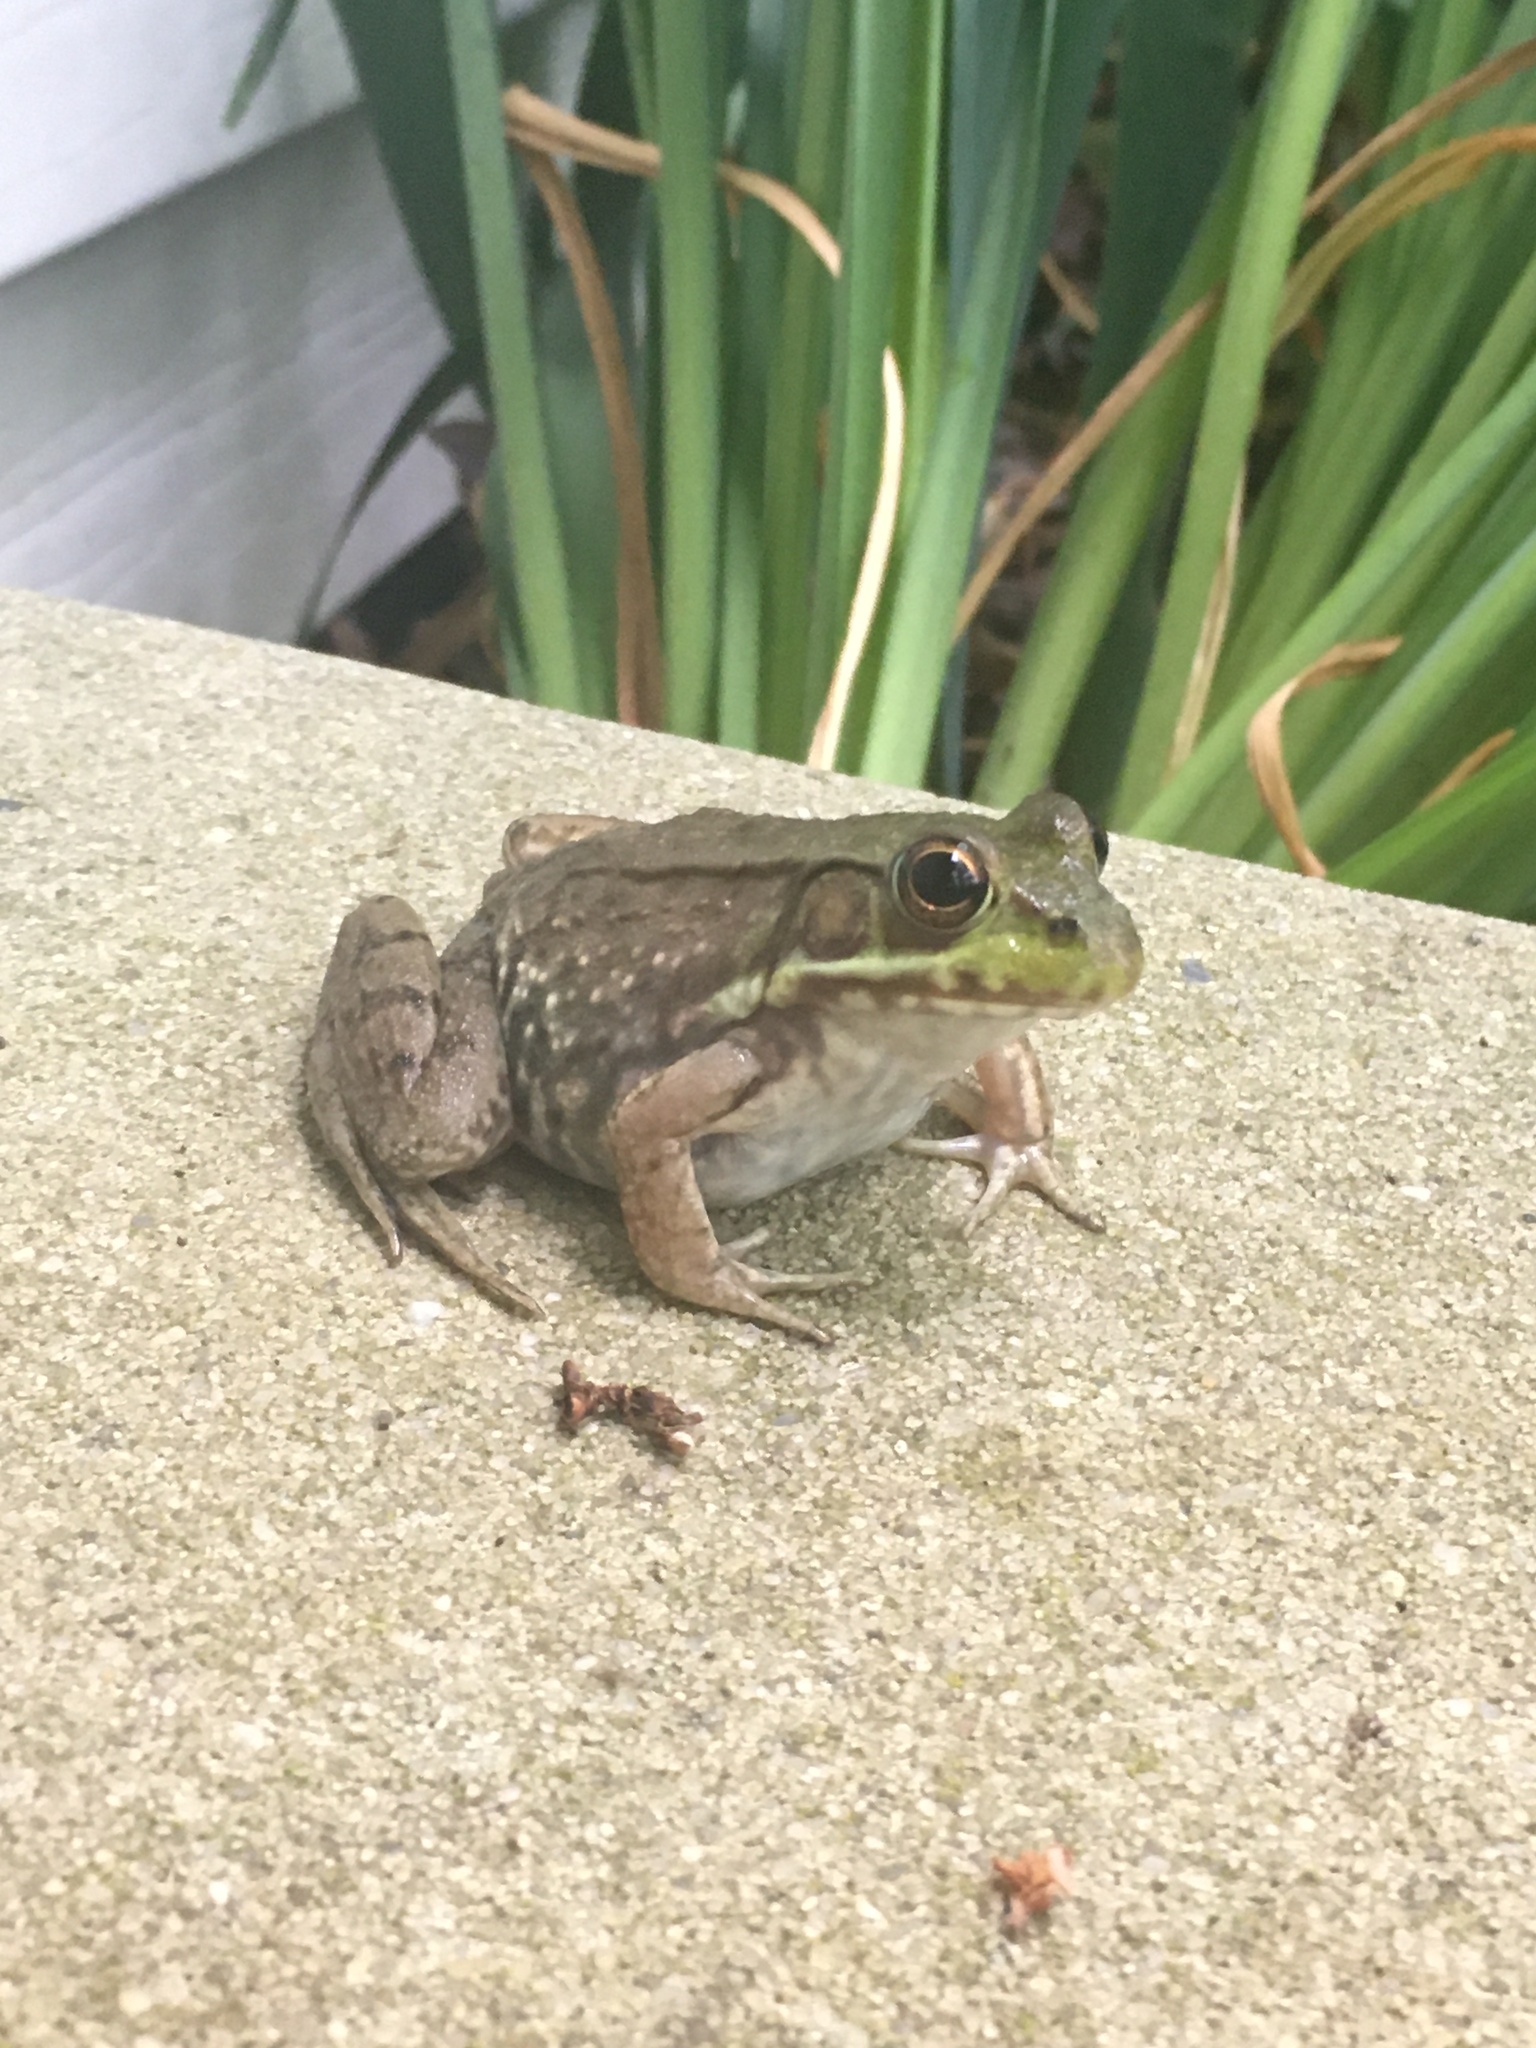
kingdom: Animalia
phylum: Chordata
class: Amphibia
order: Anura
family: Ranidae
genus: Lithobates
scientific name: Lithobates clamitans
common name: Green frog
